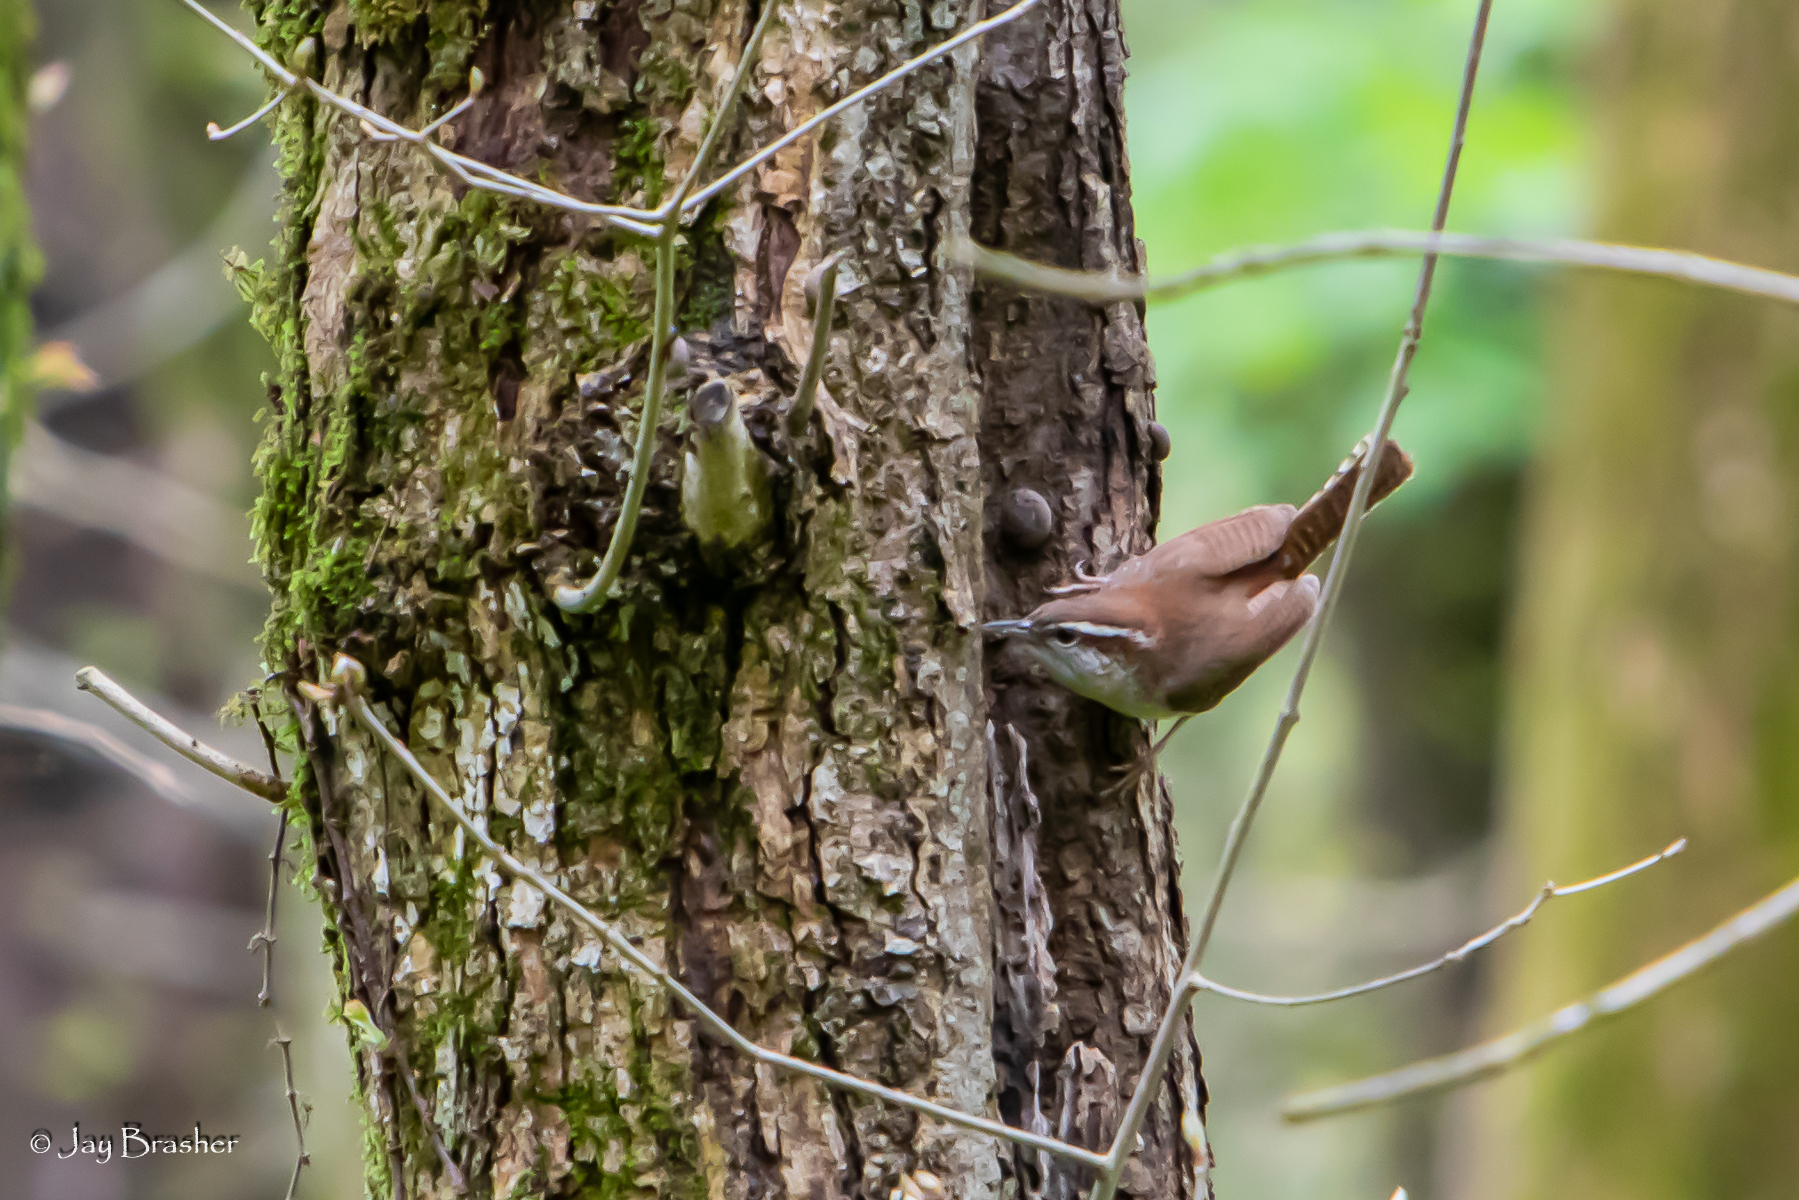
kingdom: Animalia
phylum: Chordata
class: Aves
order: Passeriformes
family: Troglodytidae
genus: Thryothorus
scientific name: Thryothorus ludovicianus
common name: Carolina wren
